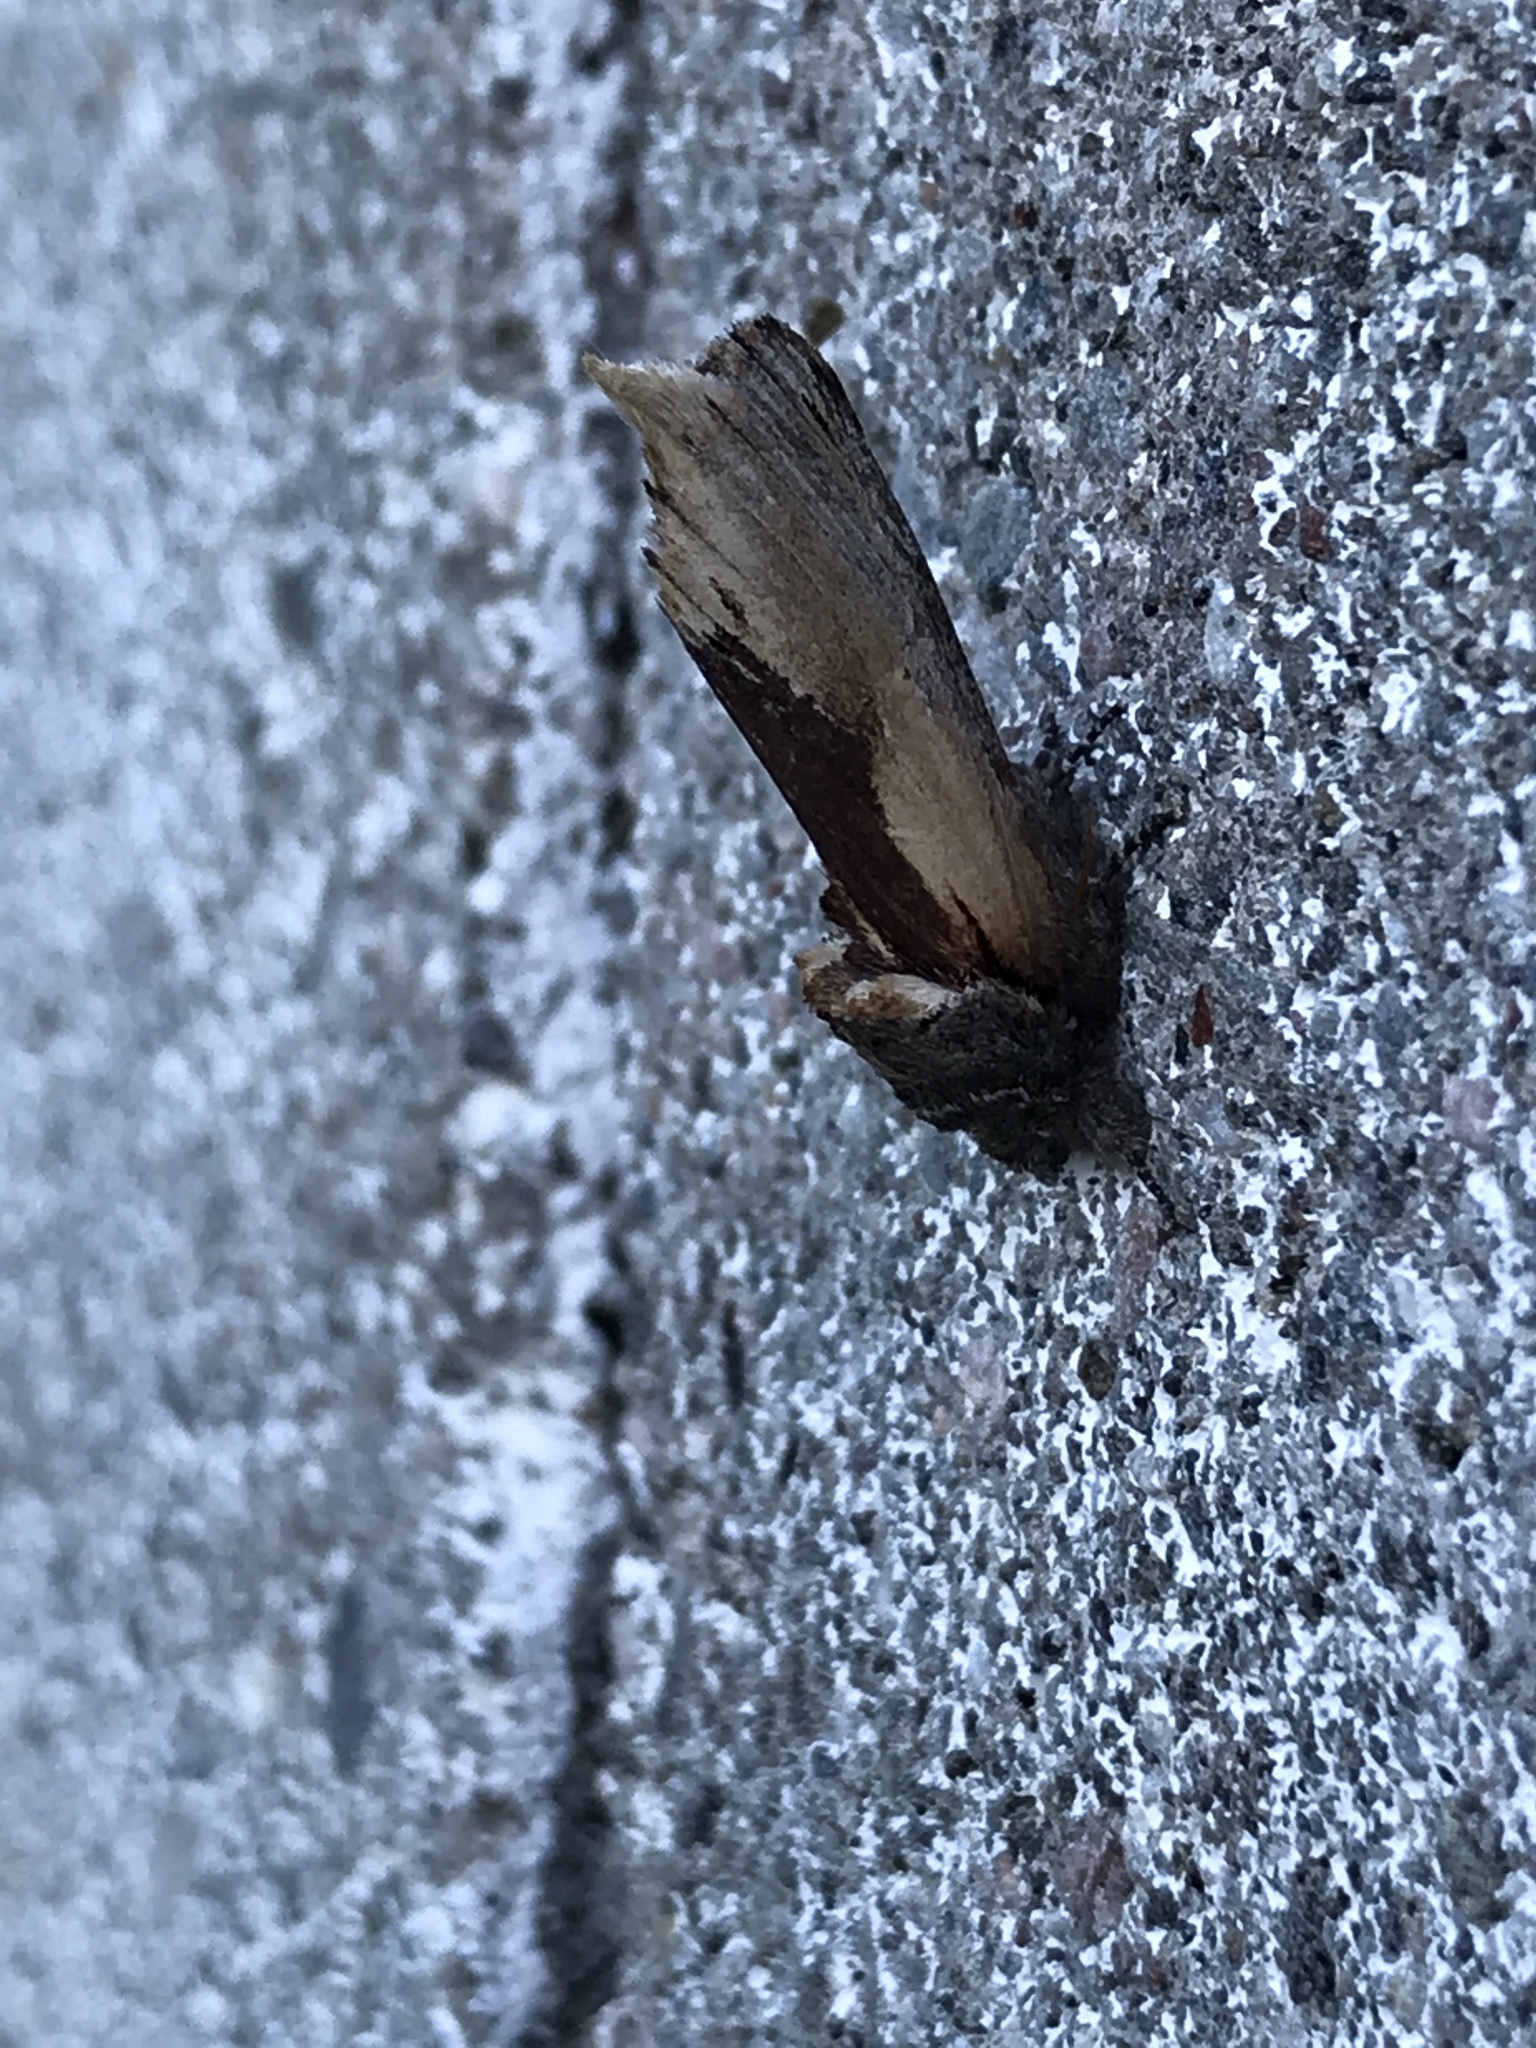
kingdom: Animalia
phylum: Arthropoda
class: Insecta
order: Lepidoptera
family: Notodontidae
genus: Schizura
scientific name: Schizura
